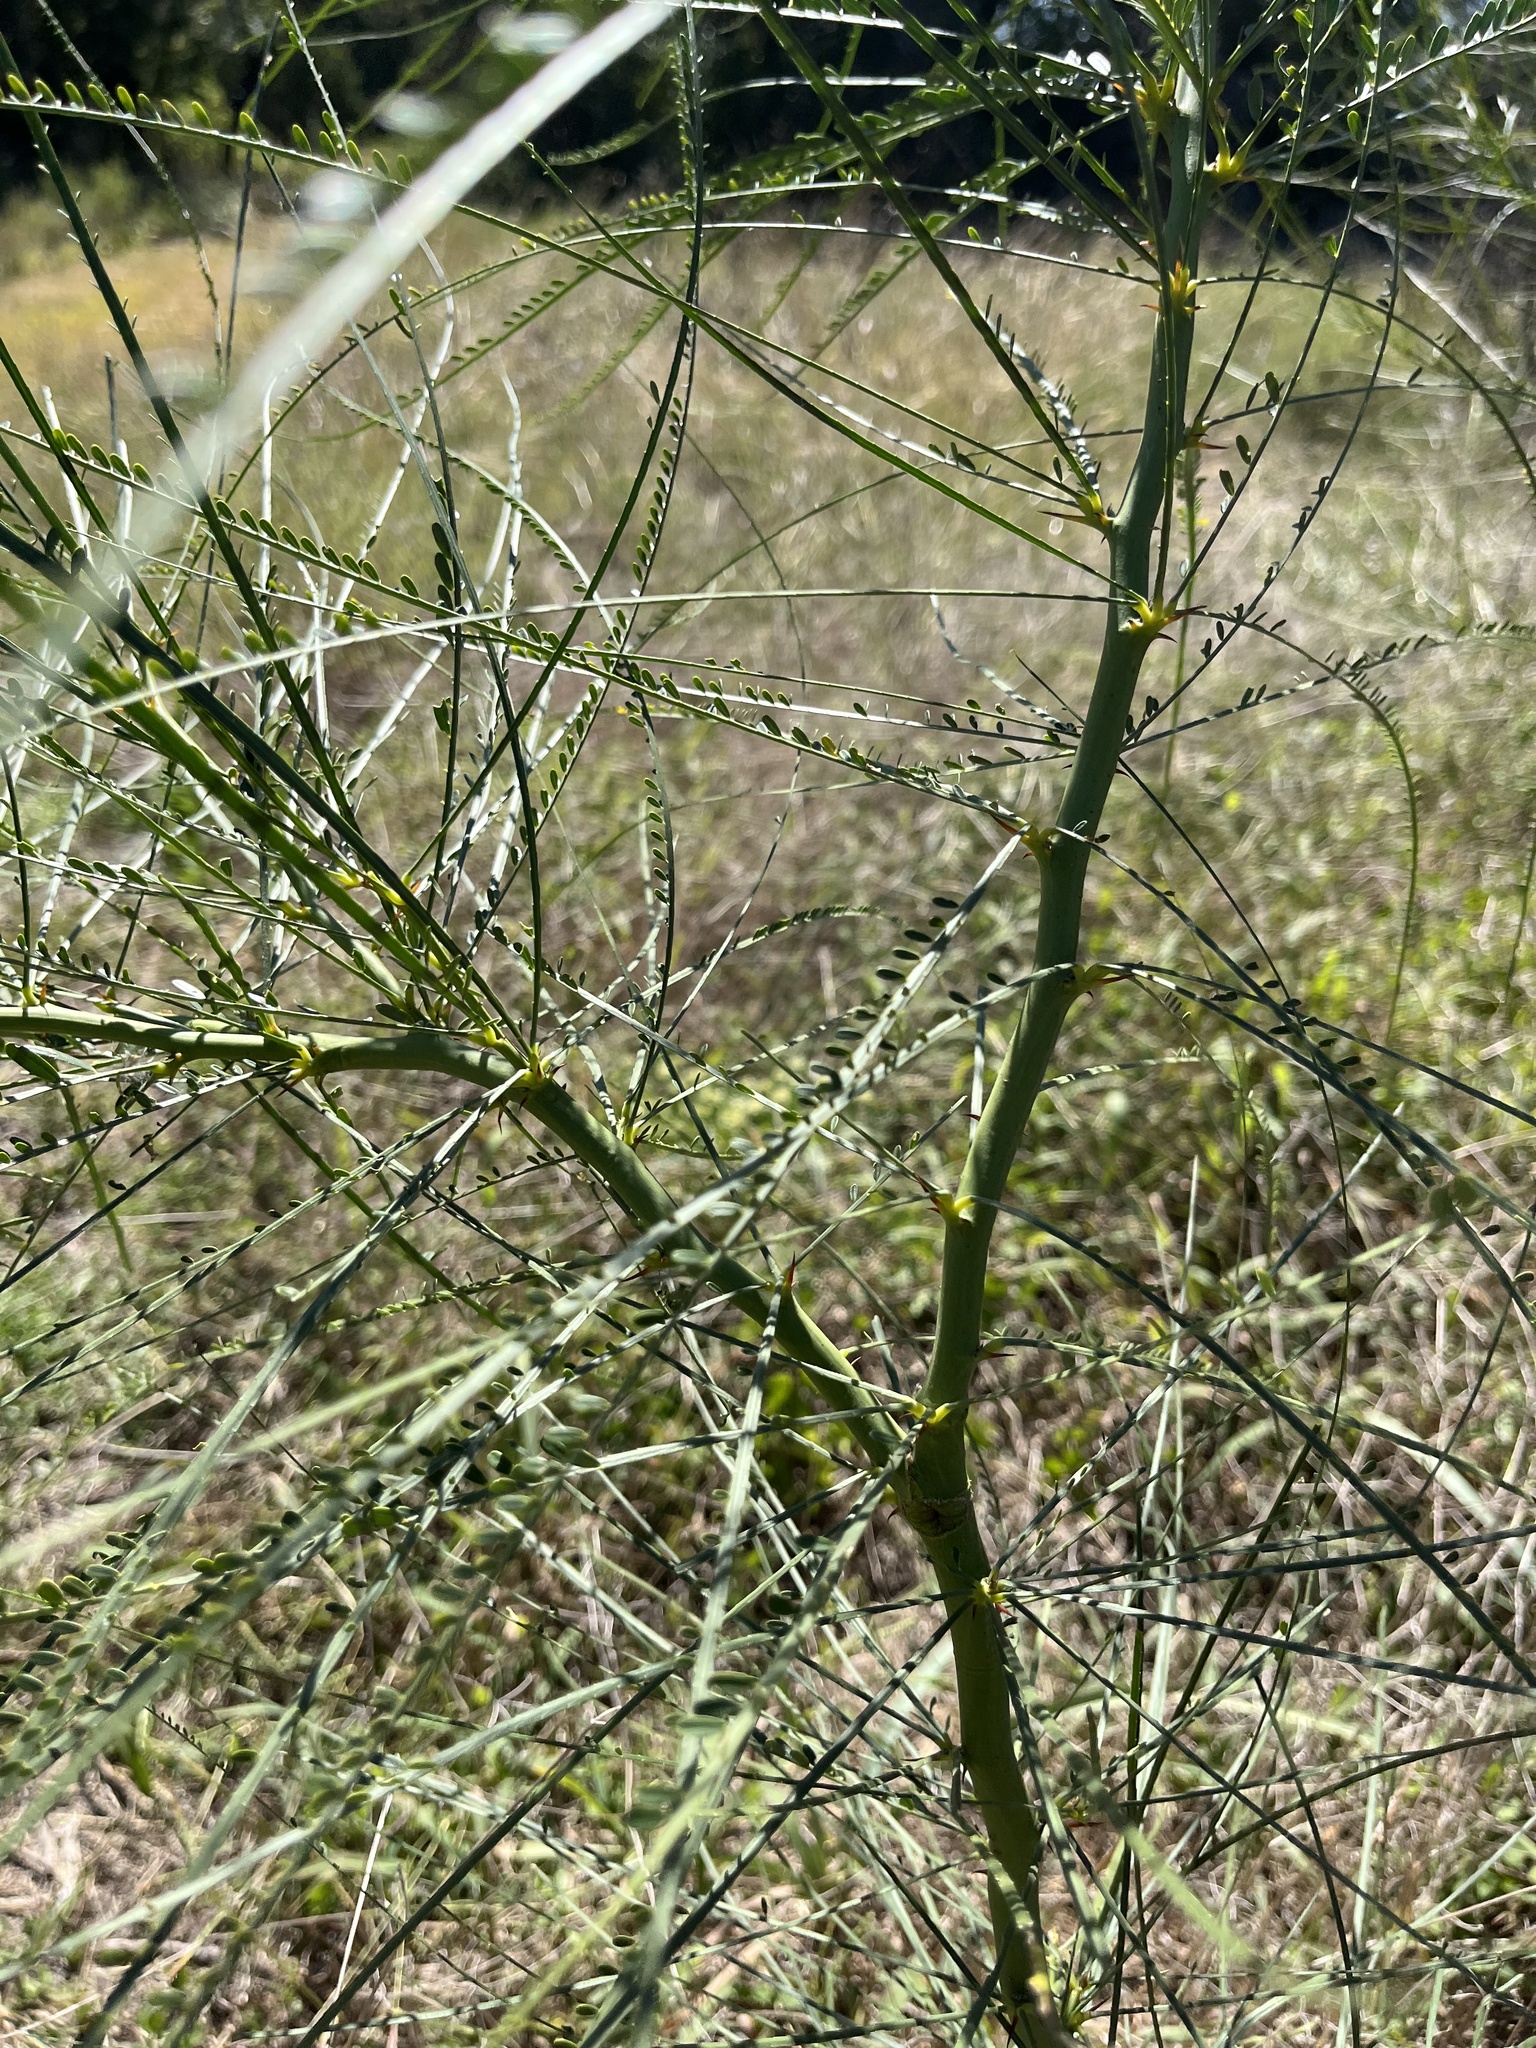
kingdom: Plantae
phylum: Tracheophyta
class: Magnoliopsida
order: Fabales
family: Fabaceae
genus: Parkinsonia
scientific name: Parkinsonia aculeata
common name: Jerusalem thorn
